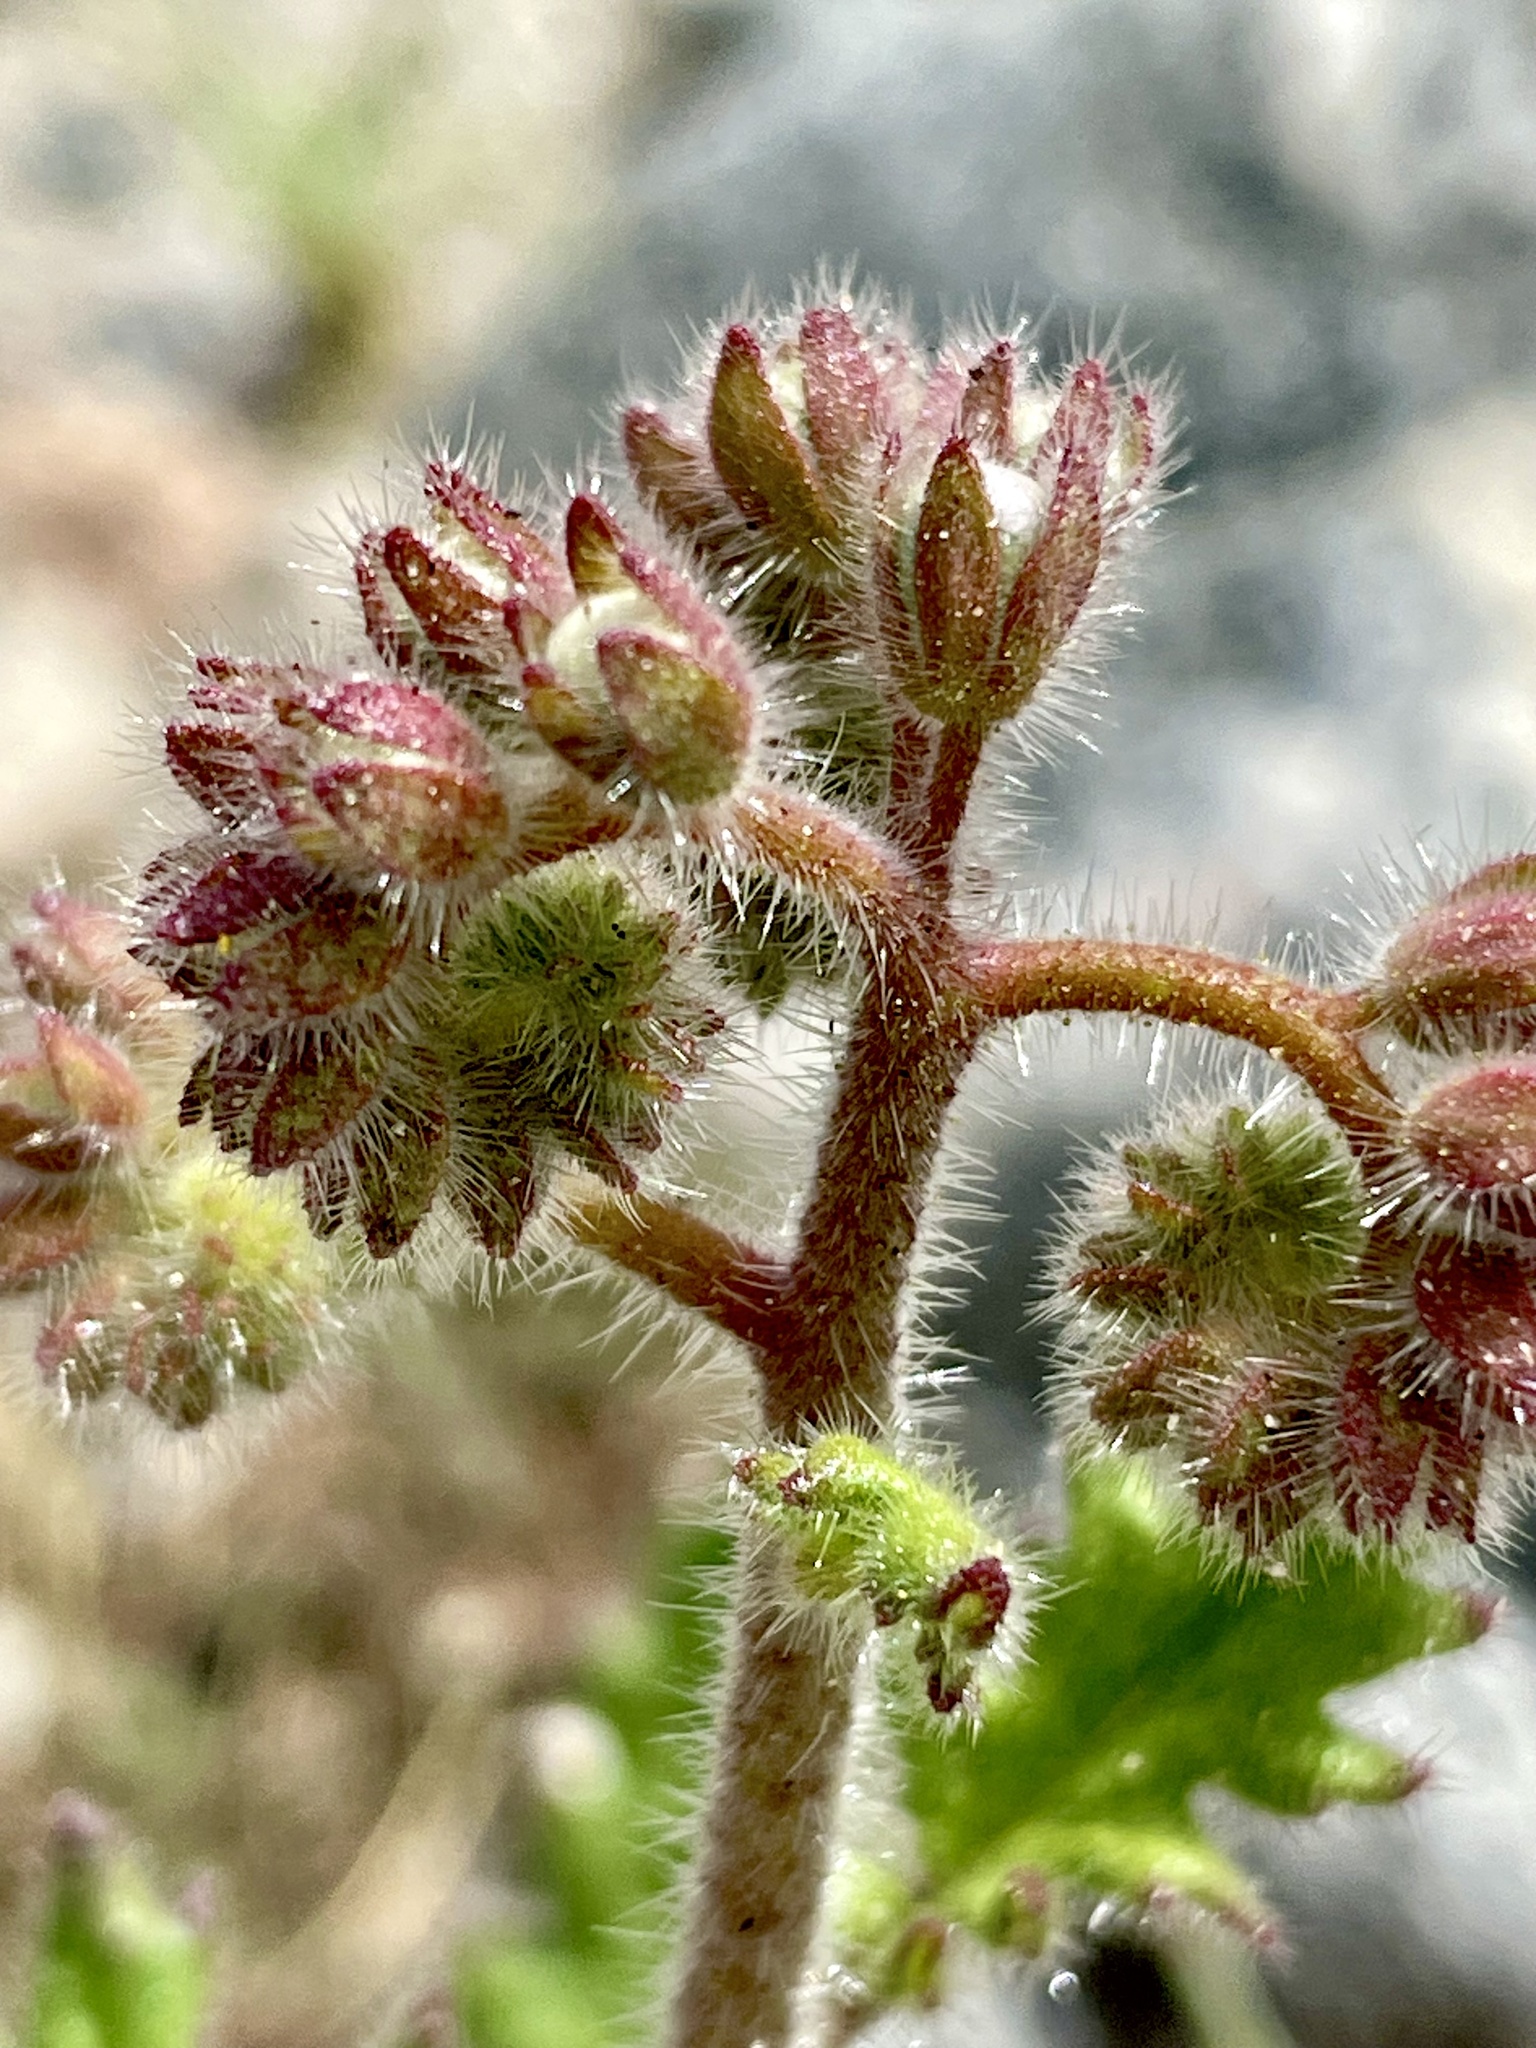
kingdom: Plantae
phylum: Tracheophyta
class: Magnoliopsida
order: Boraginales
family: Hydrophyllaceae
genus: Phacelia
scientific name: Phacelia crenulata
